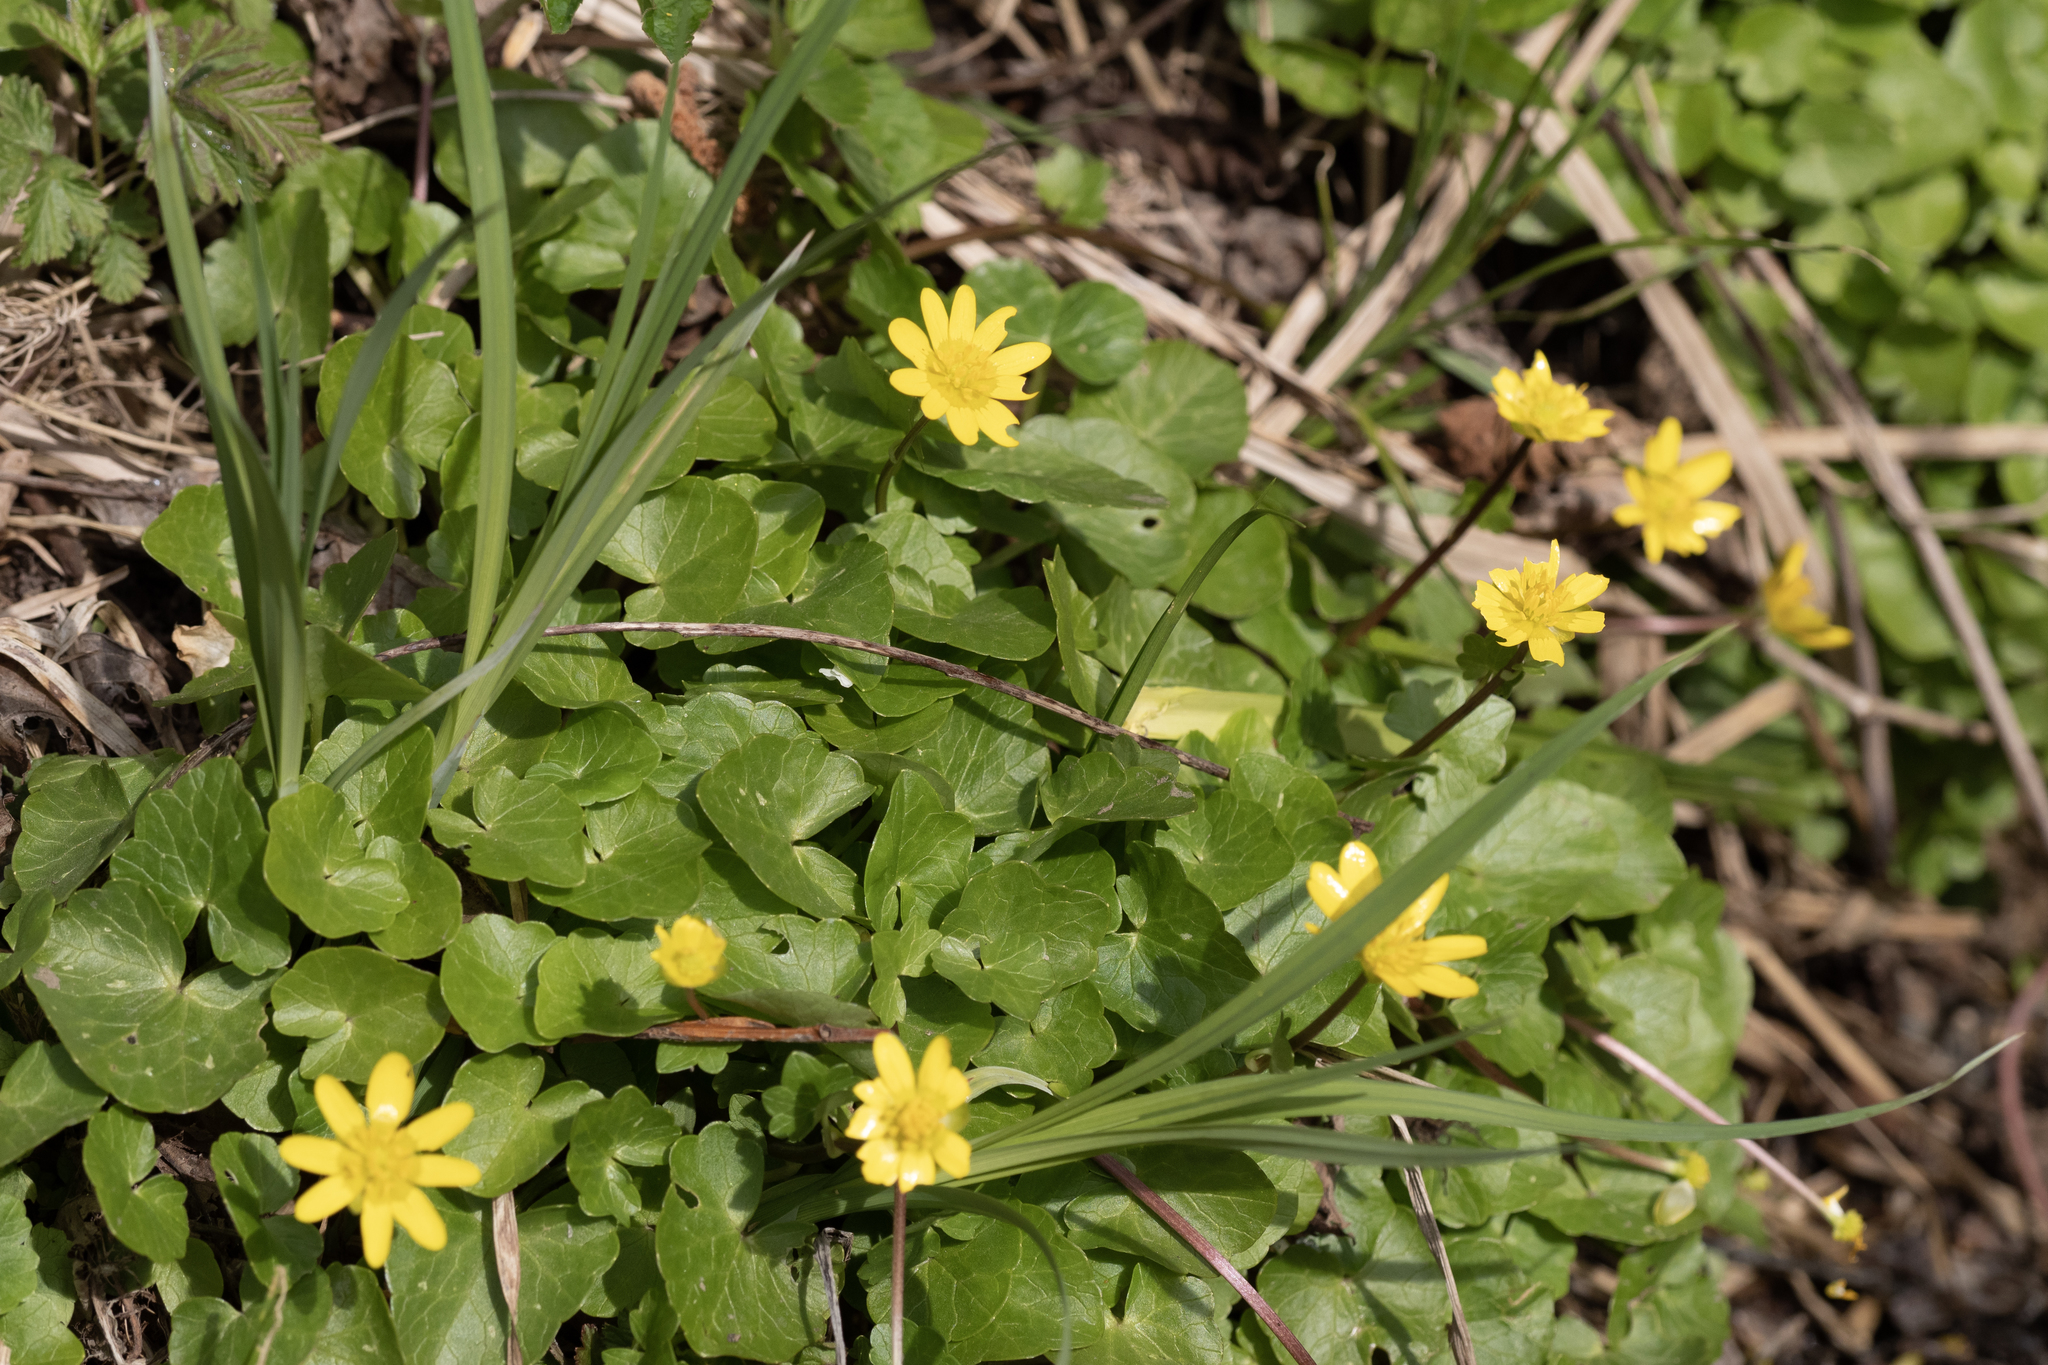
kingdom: Plantae
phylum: Tracheophyta
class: Magnoliopsida
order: Ranunculales
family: Ranunculaceae
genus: Ficaria
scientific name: Ficaria verna
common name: Lesser celandine
